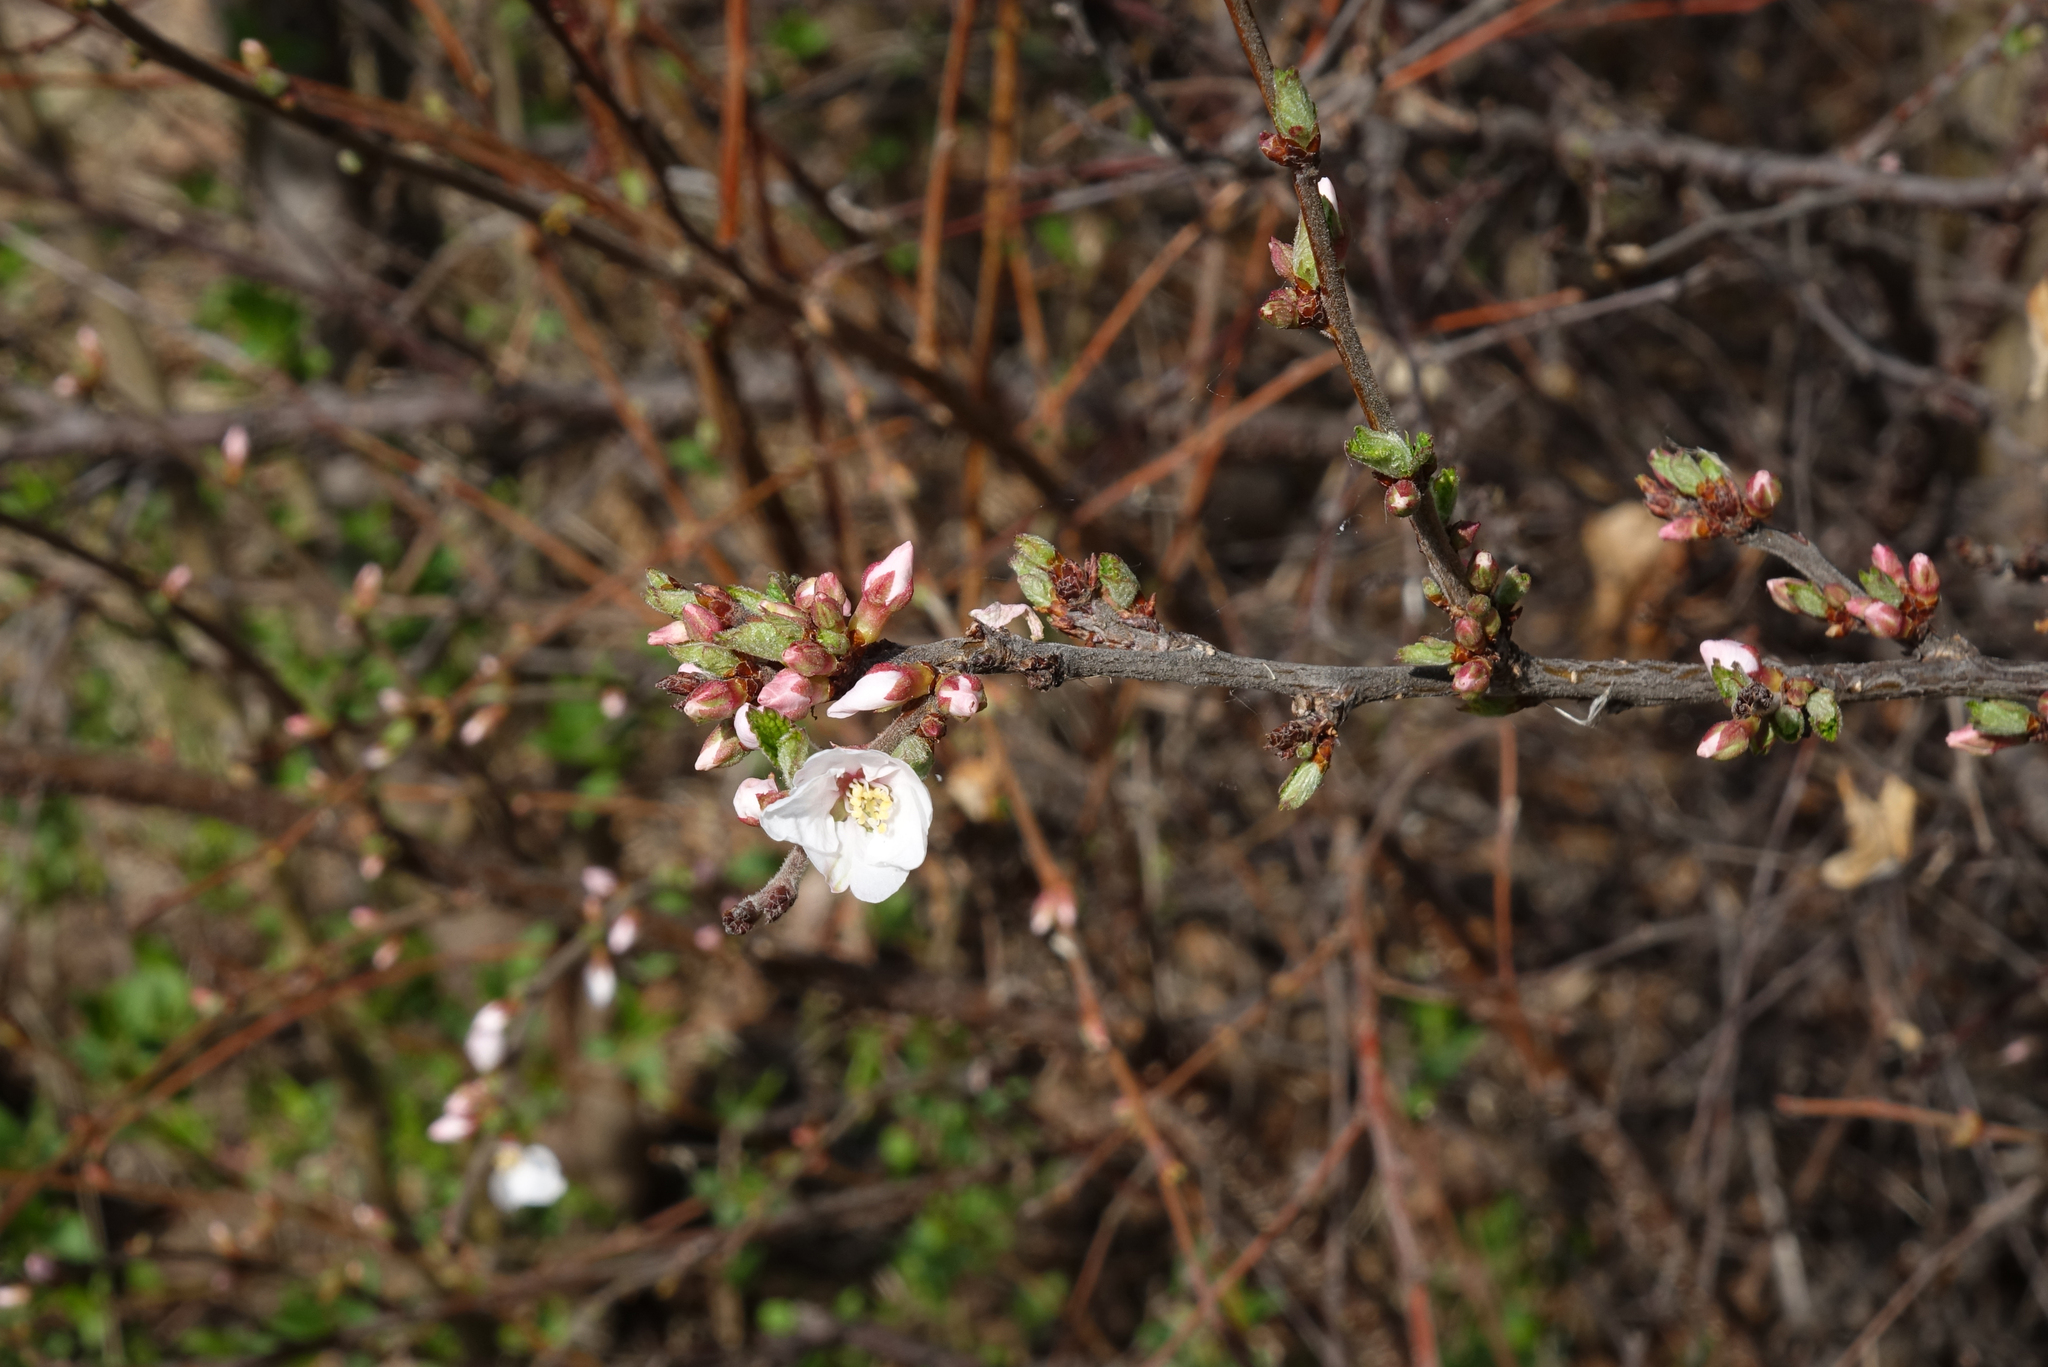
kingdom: Plantae
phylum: Tracheophyta
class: Magnoliopsida
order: Rosales
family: Rosaceae
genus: Prunus
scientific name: Prunus tomentosa
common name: Nanking cherry
